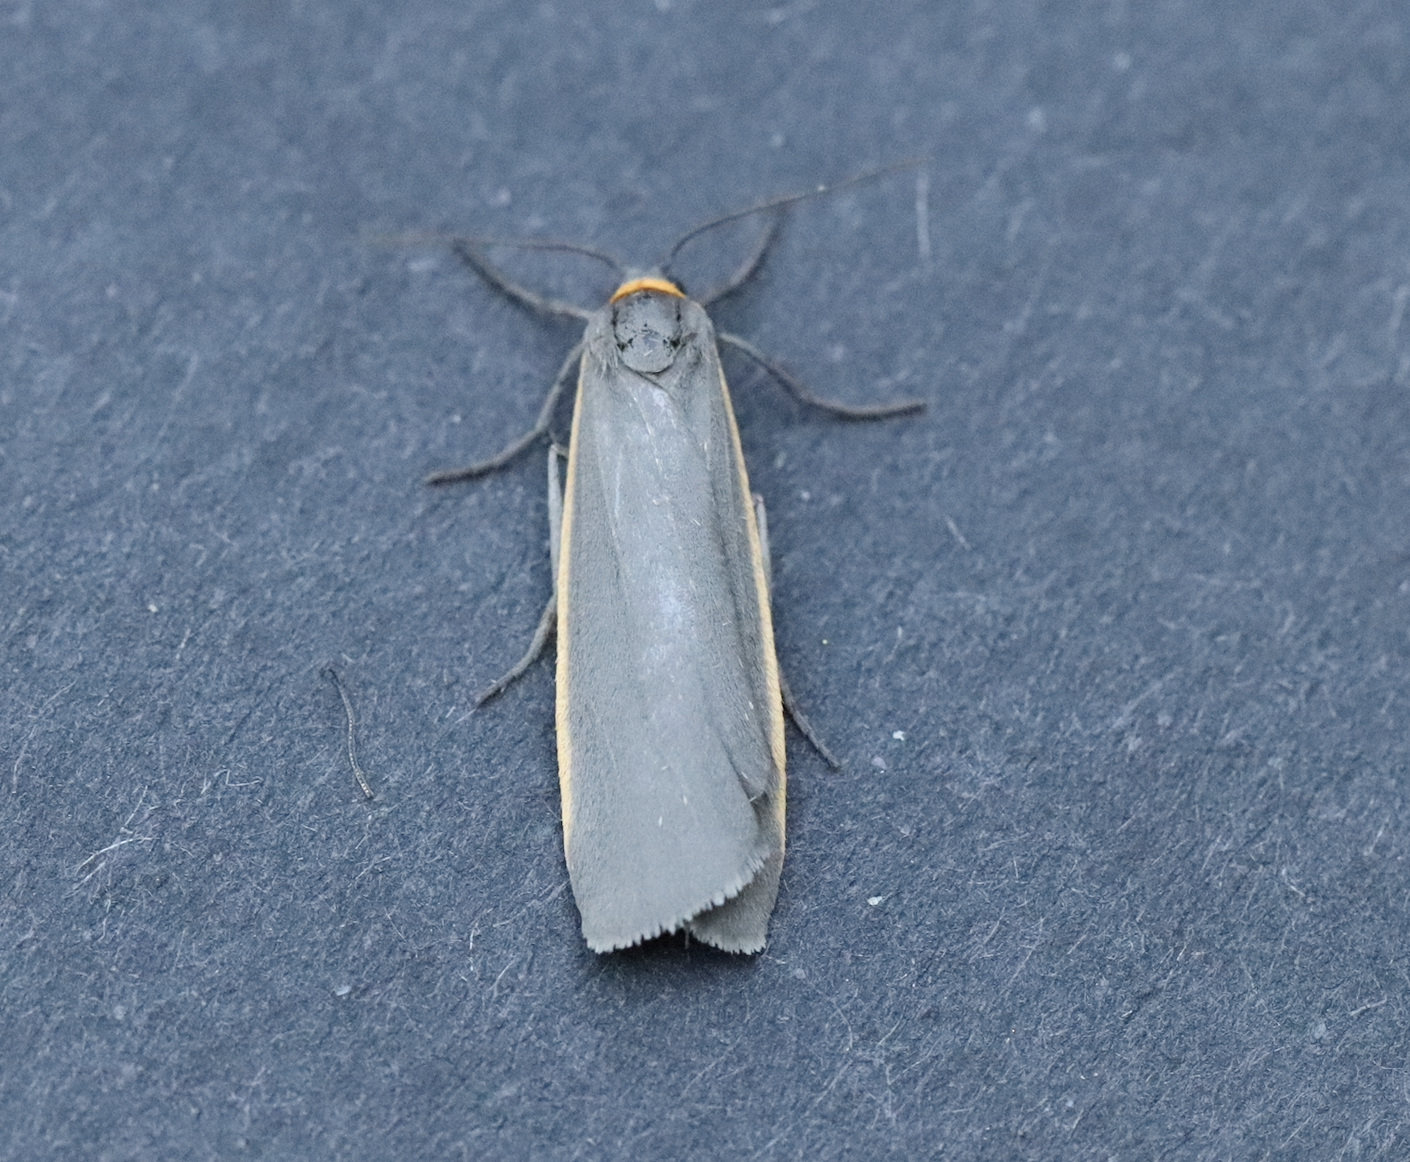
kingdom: Animalia
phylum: Arthropoda
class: Insecta
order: Lepidoptera
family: Erebidae
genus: Manulea
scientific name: Manulea bicolor
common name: Bicolored moth
